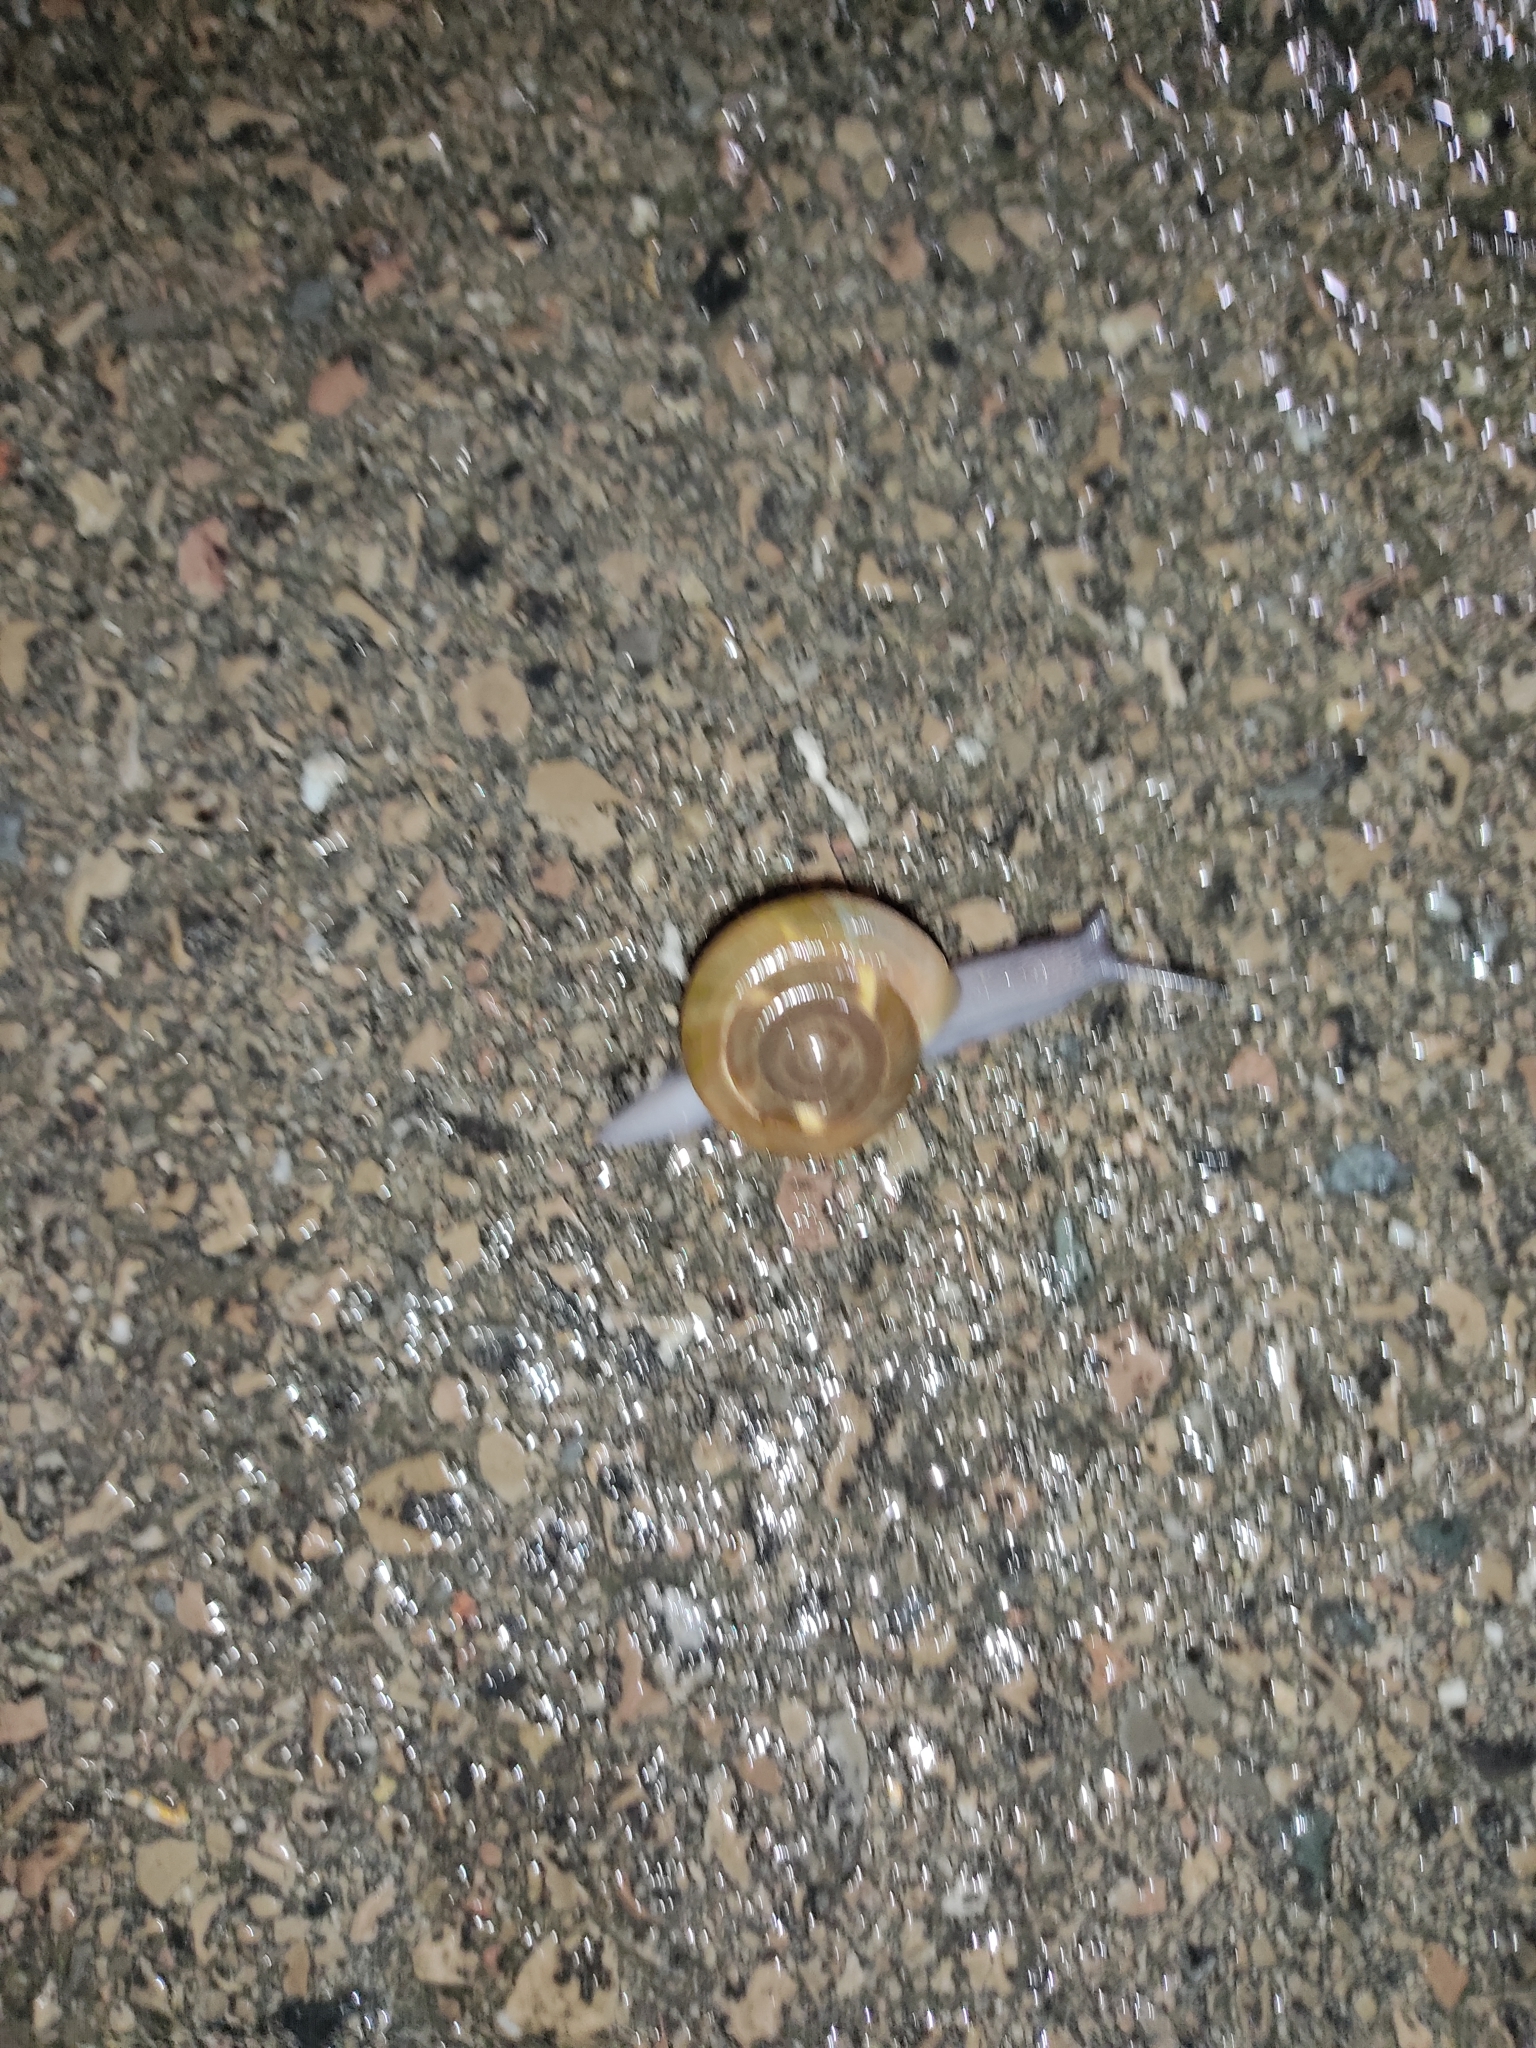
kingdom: Animalia
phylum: Mollusca
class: Gastropoda
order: Stylommatophora
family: Zonitidae
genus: Zonites
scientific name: Zonites algirus
